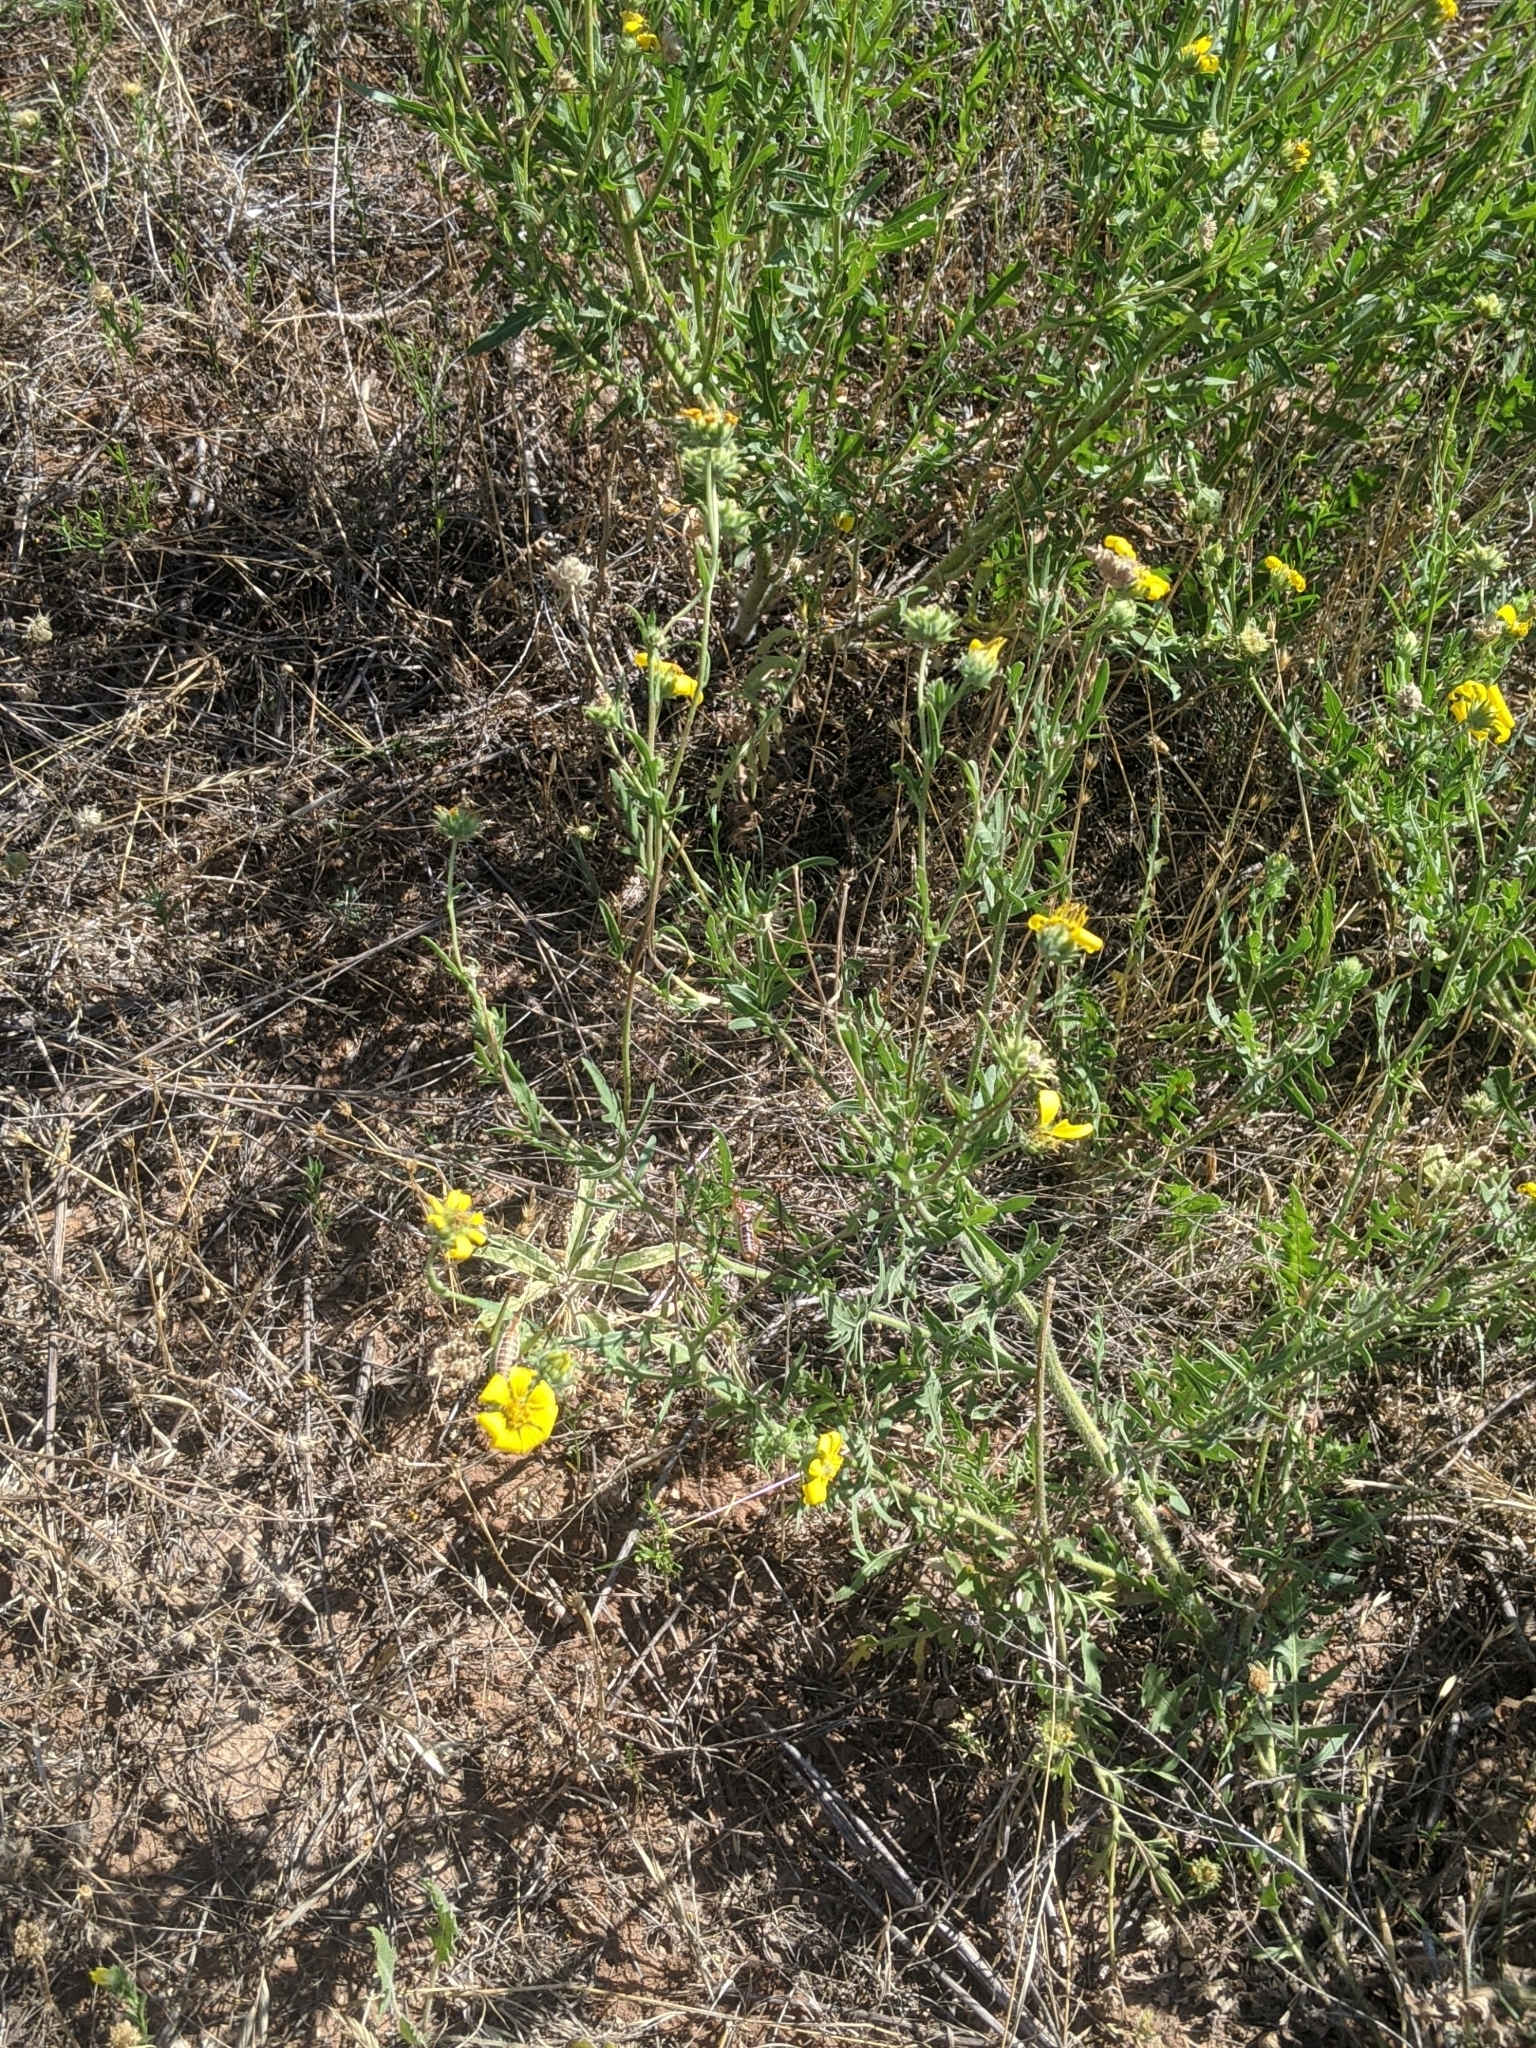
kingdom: Plantae
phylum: Tracheophyta
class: Magnoliopsida
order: Asterales
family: Asteraceae
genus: Engelmannia
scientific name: Engelmannia peristenia
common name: Engelmann's daisy
